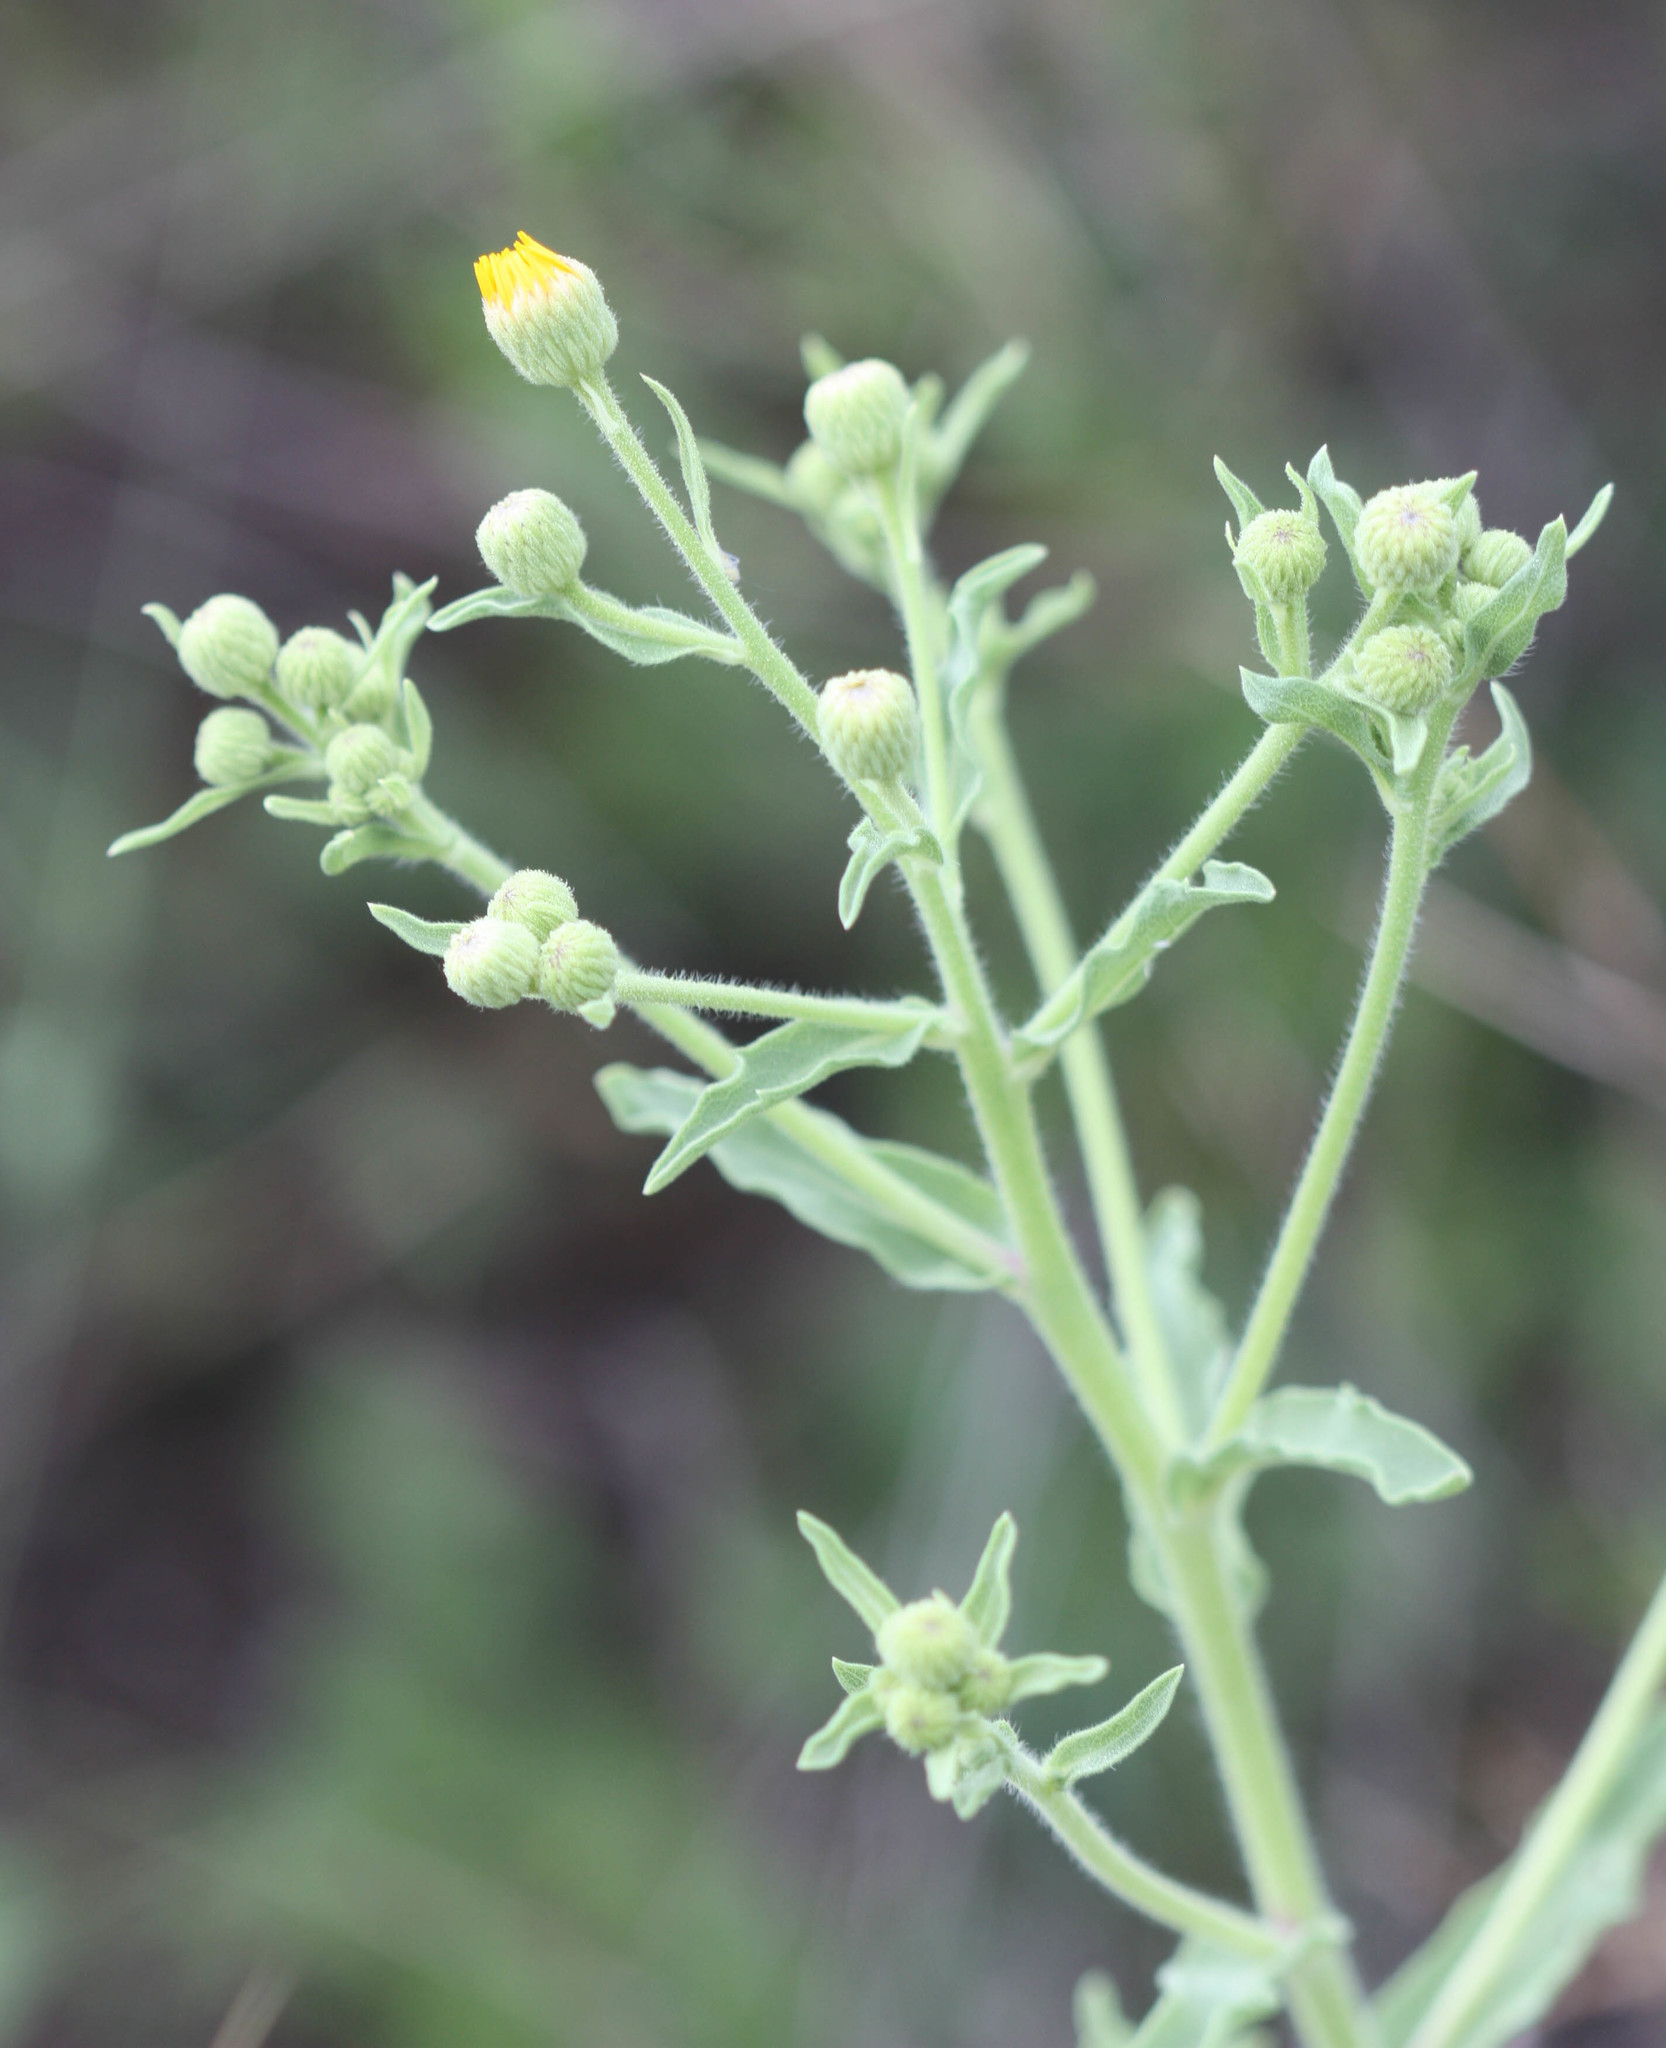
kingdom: Plantae
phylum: Tracheophyta
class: Magnoliopsida
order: Asterales
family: Asteraceae
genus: Heterotheca
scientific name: Heterotheca subaxillaris
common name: Camphorweed
